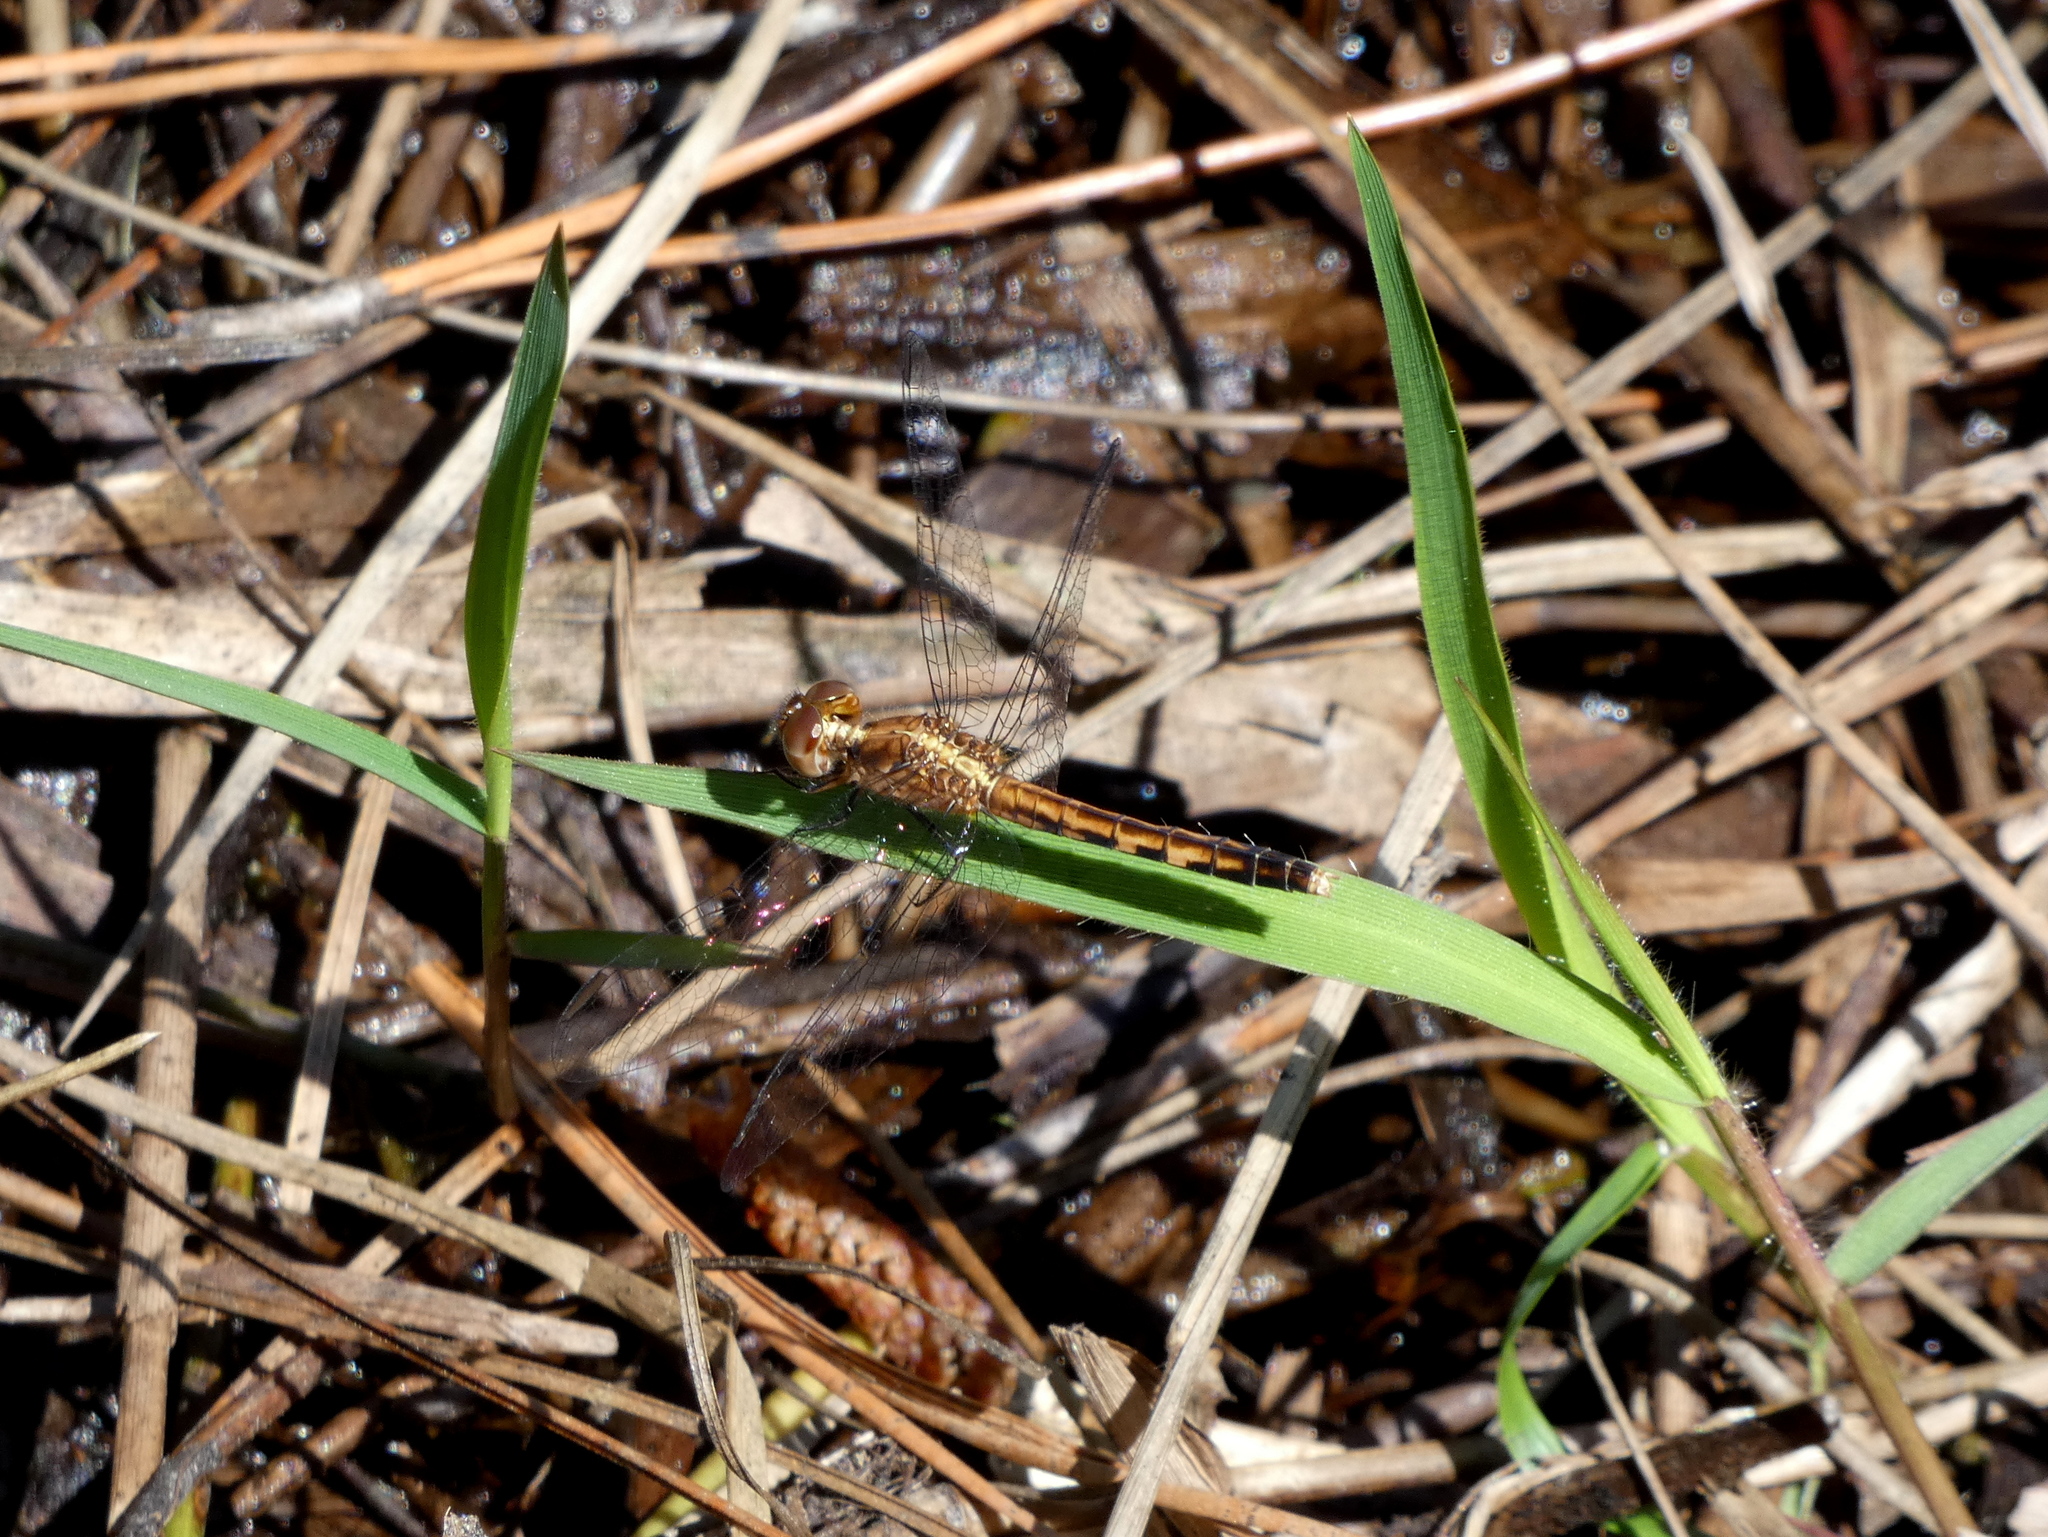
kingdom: Animalia
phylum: Arthropoda
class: Insecta
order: Odonata
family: Libellulidae
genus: Erythrodiplax
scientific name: Erythrodiplax minuscula
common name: Little blue dragonlet
